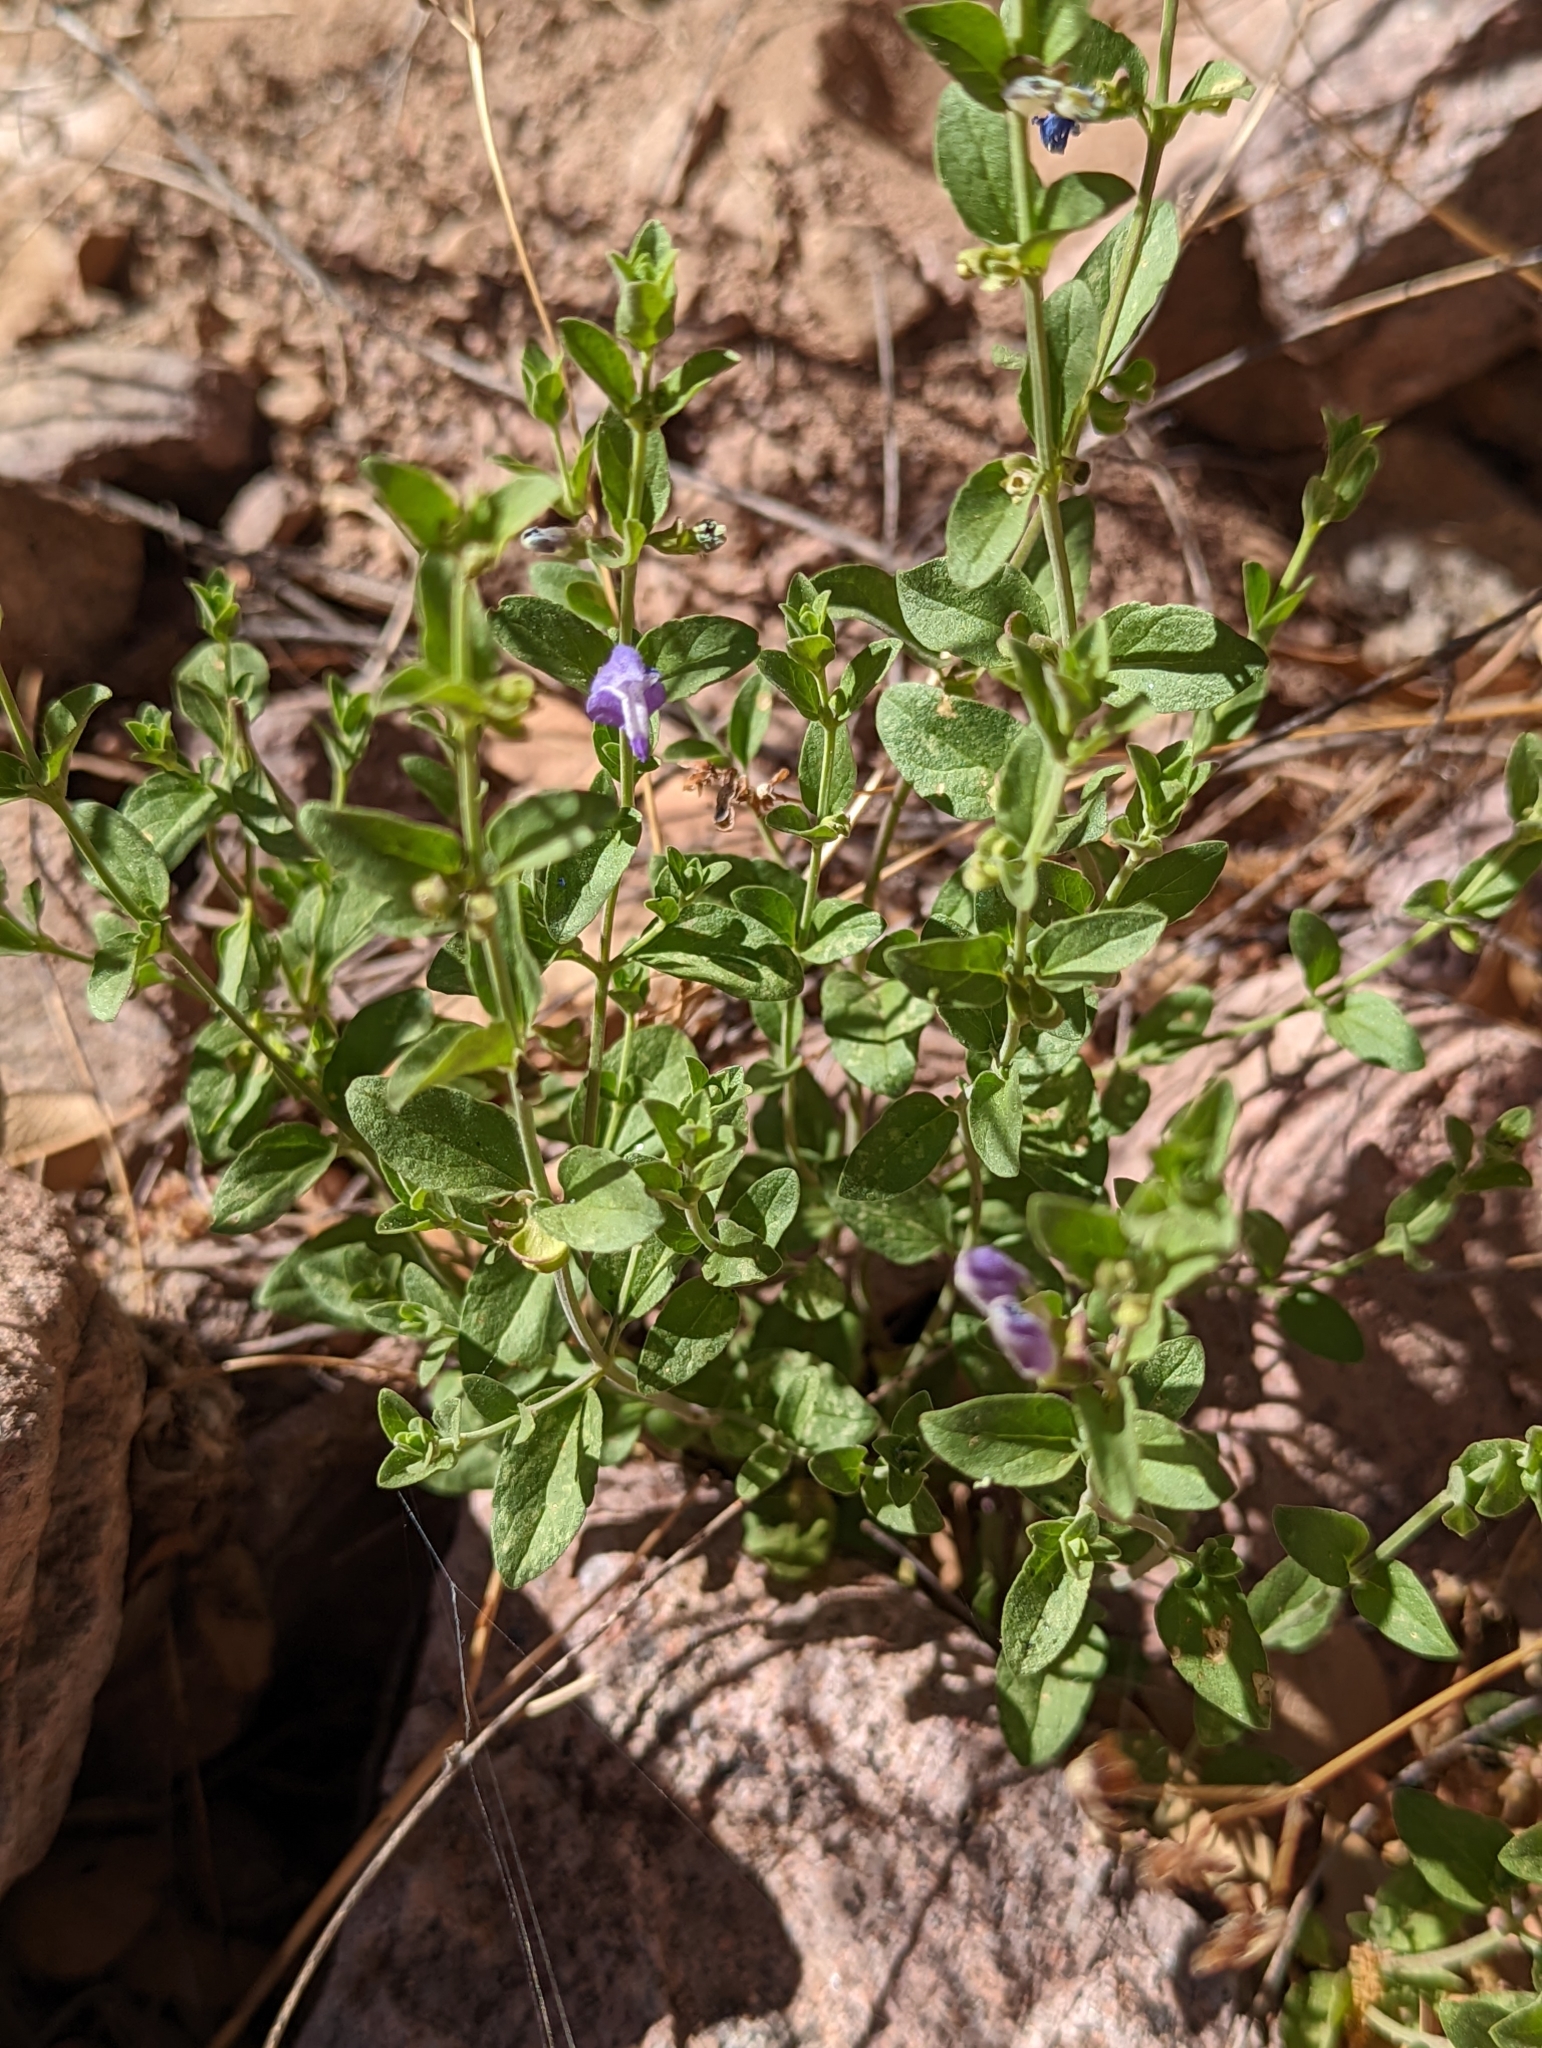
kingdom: Plantae
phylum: Tracheophyta
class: Magnoliopsida
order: Lamiales
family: Lamiaceae
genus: Scutellaria
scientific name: Scutellaria potosina
